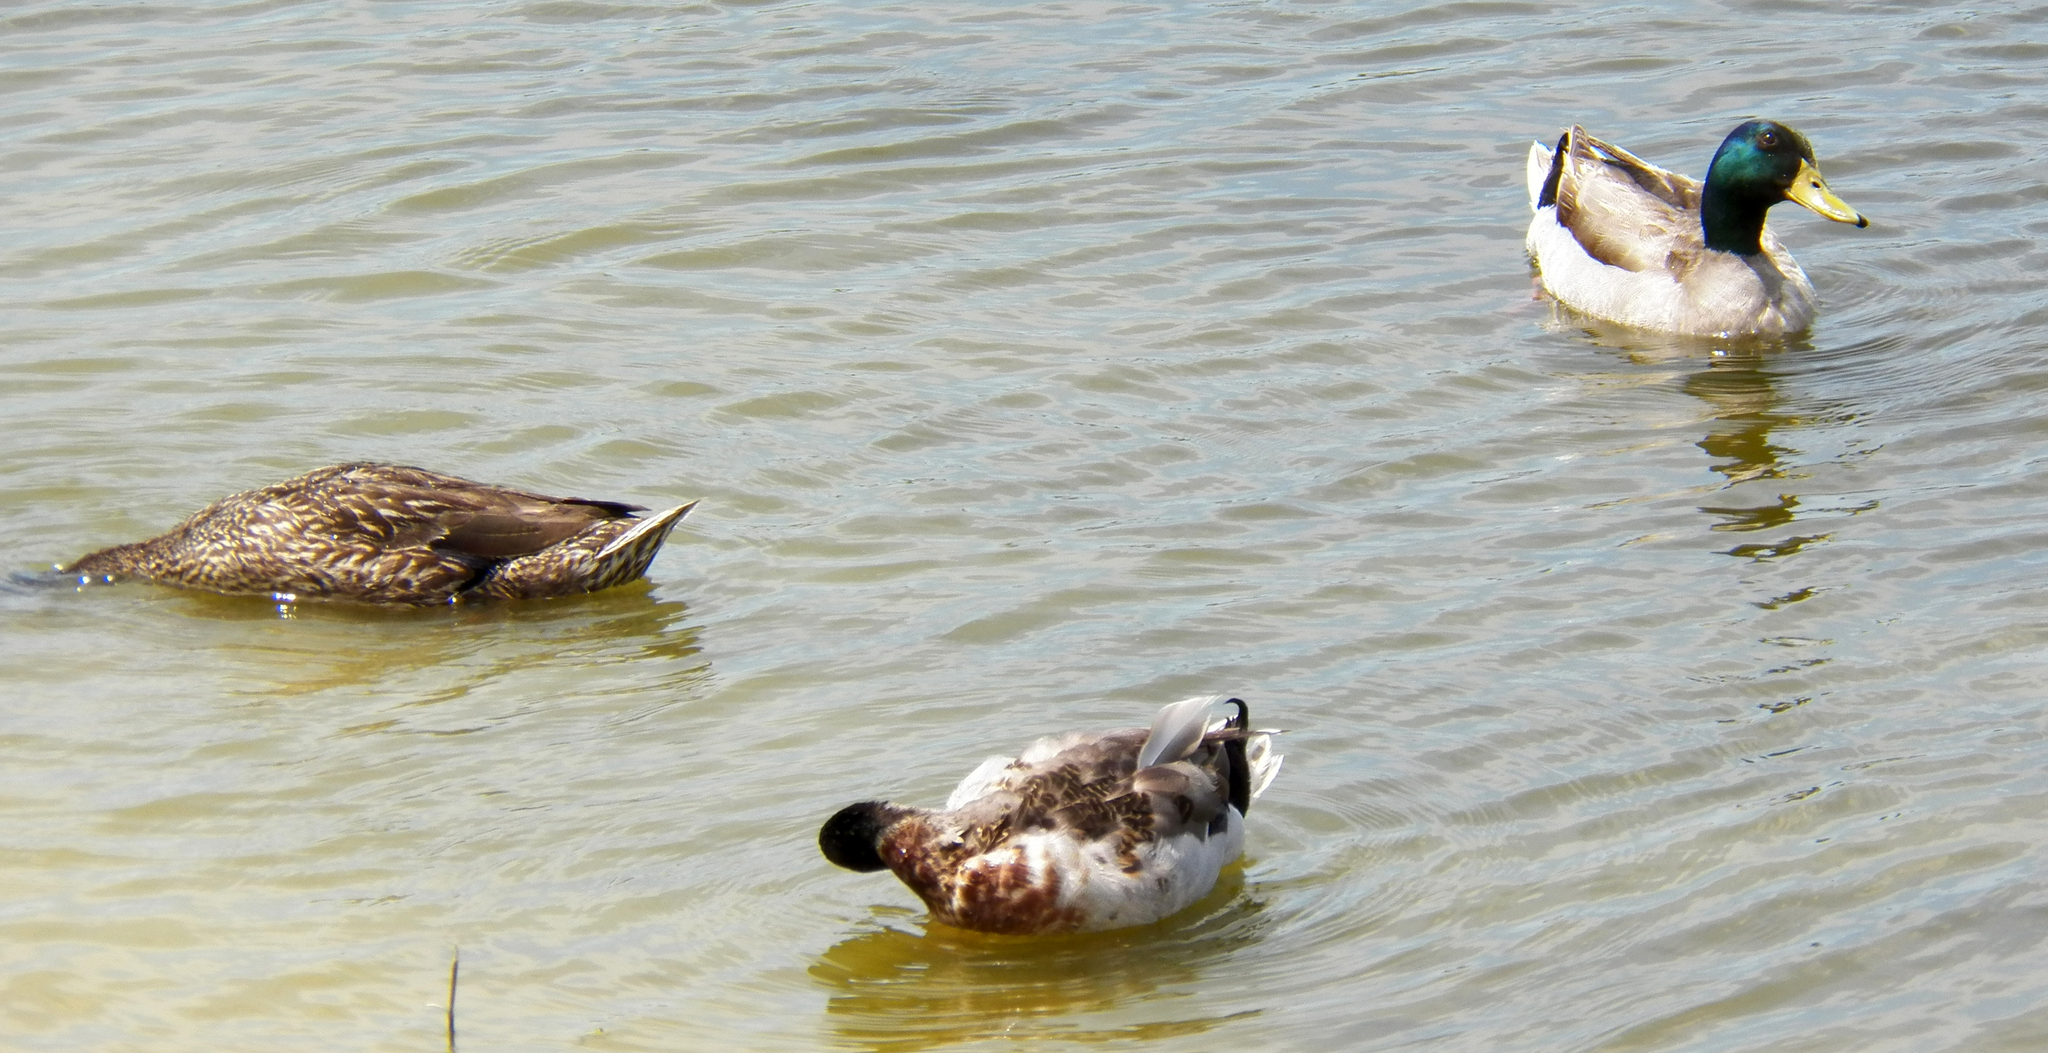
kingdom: Animalia
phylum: Chordata
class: Aves
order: Anseriformes
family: Anatidae
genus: Anas
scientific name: Anas platyrhynchos
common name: Mallard
